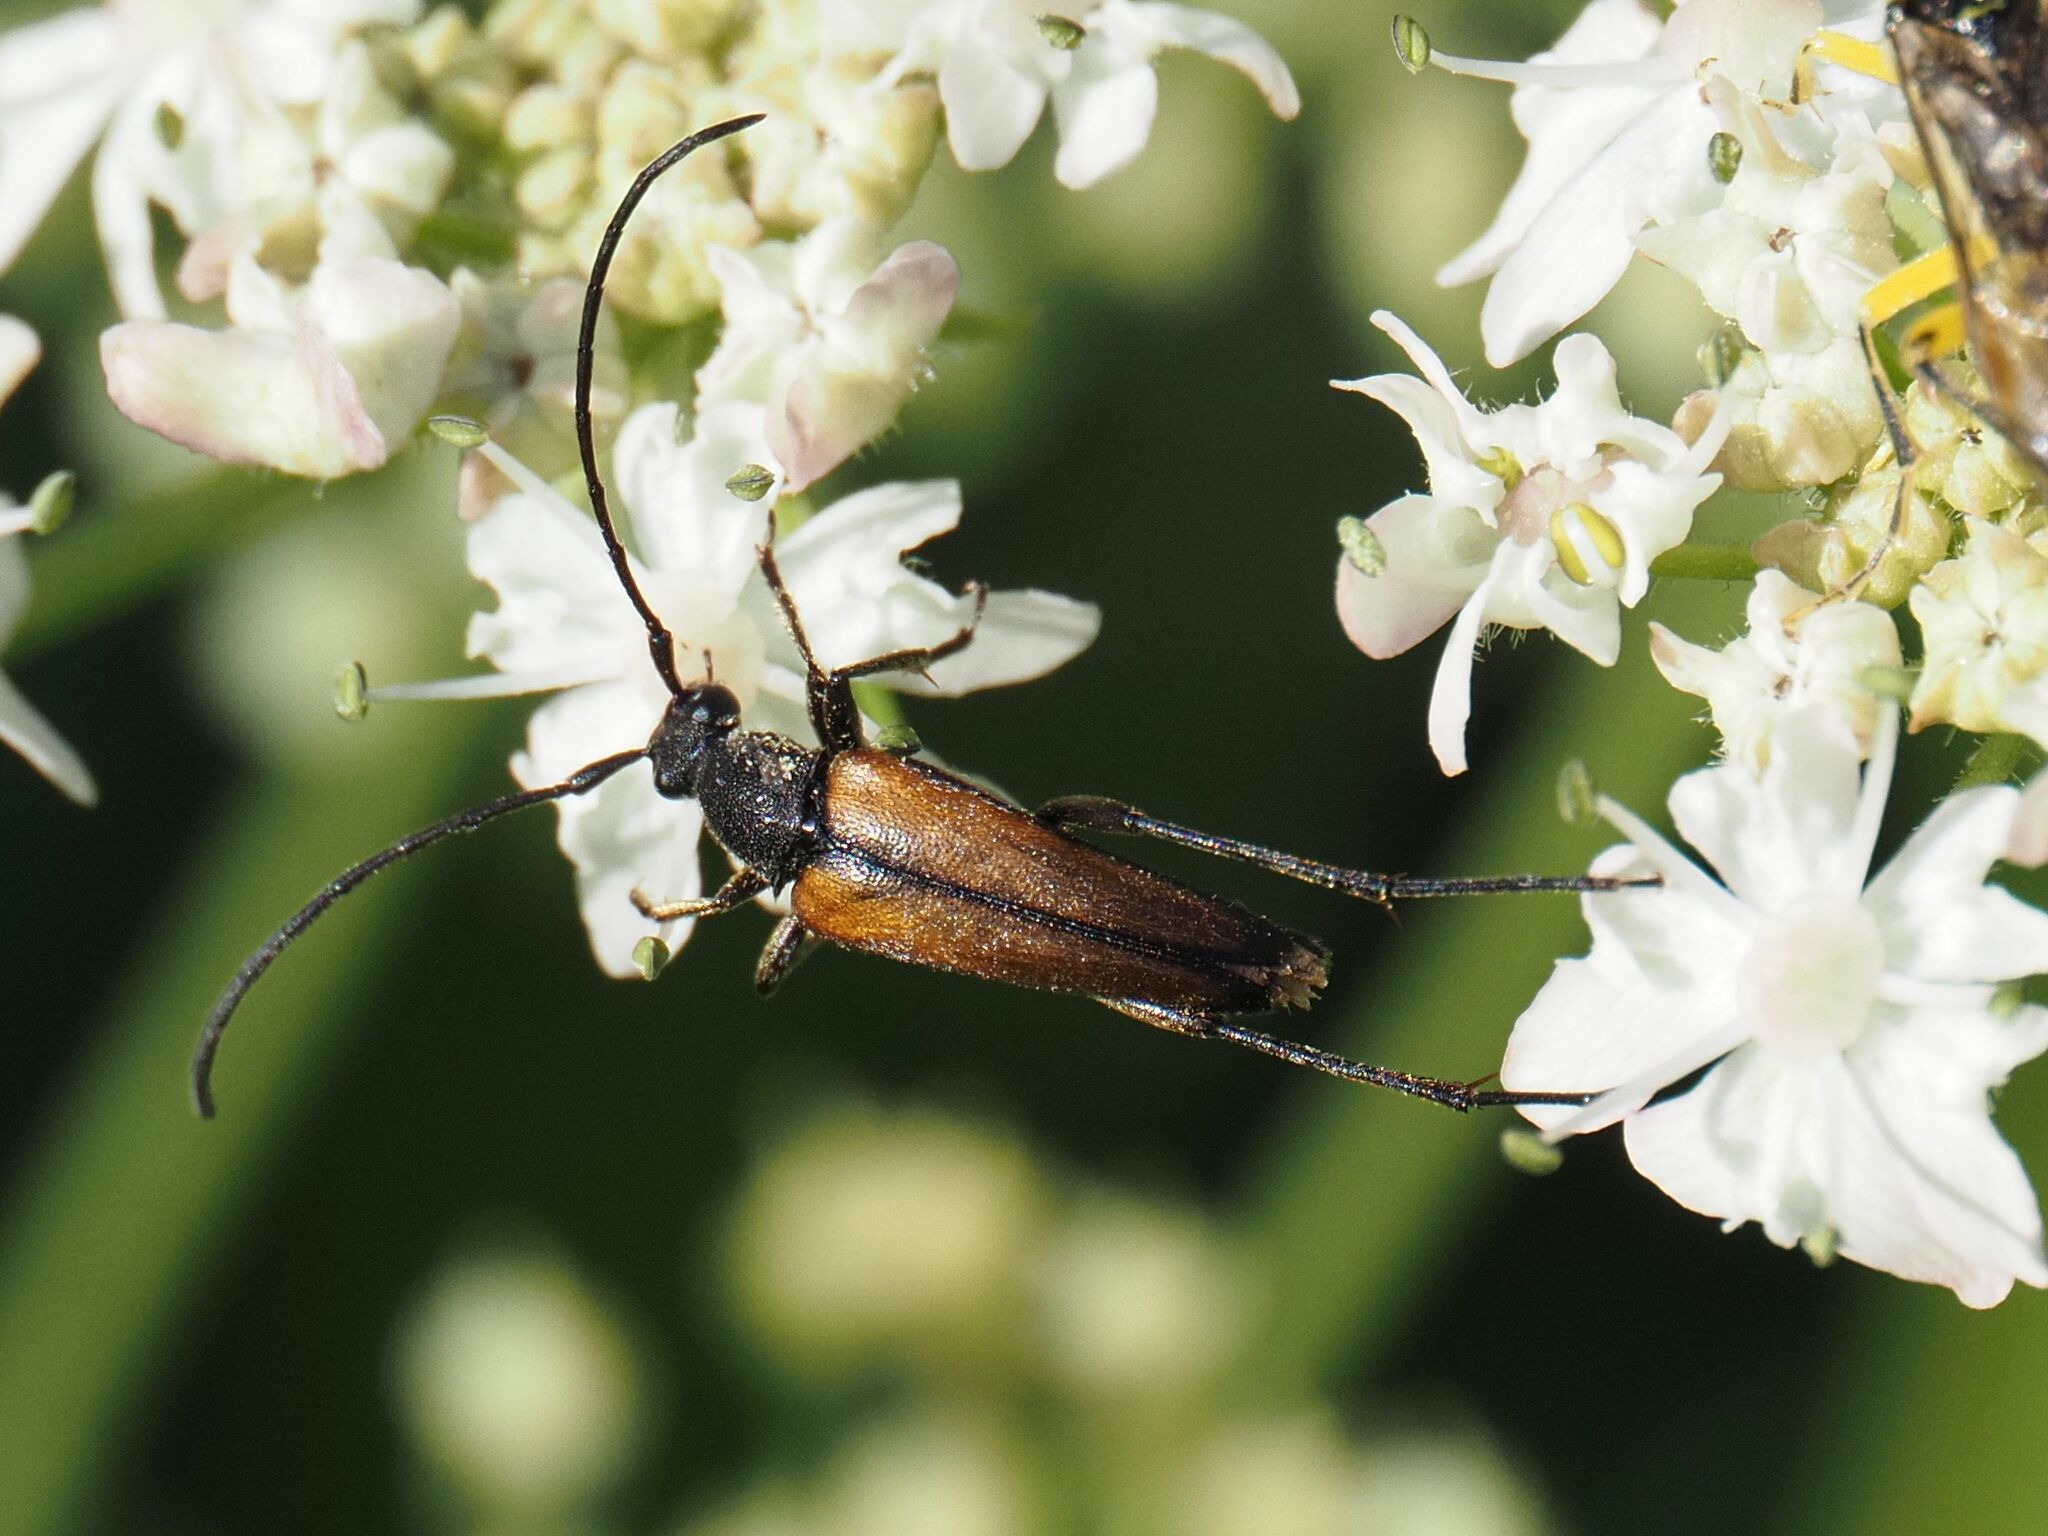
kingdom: Animalia
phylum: Arthropoda
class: Insecta
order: Coleoptera
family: Cerambycidae
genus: Stenurella
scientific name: Stenurella melanura
